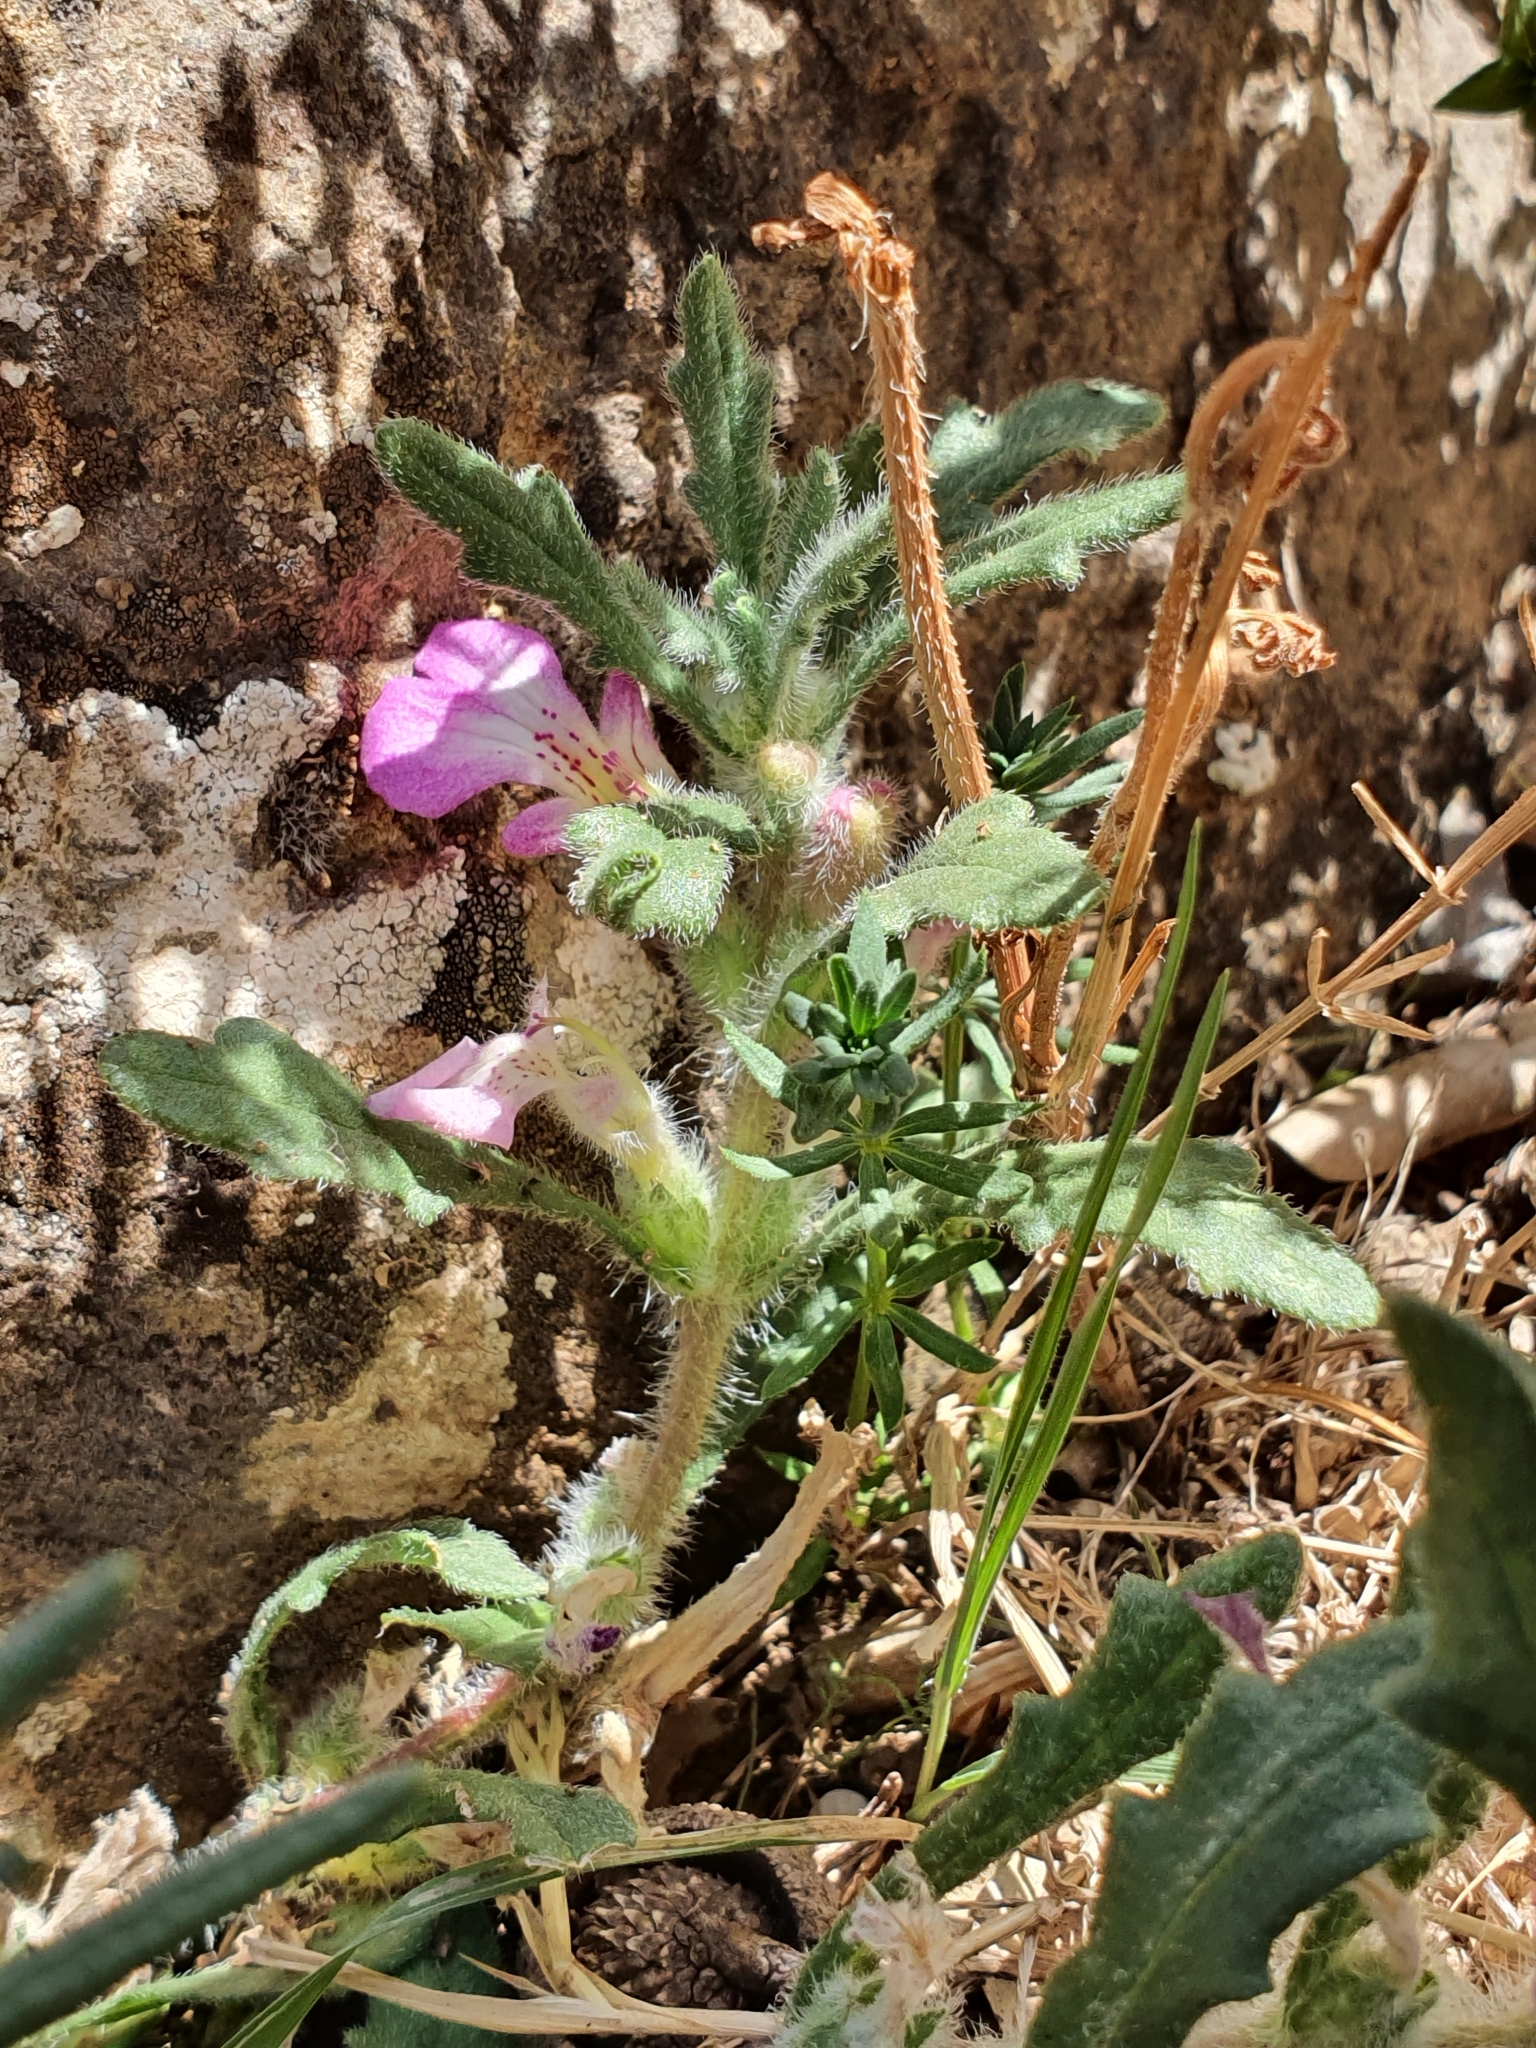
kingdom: Plantae
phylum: Tracheophyta
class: Magnoliopsida
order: Lamiales
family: Lamiaceae
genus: Ajuga
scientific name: Ajuga iva
